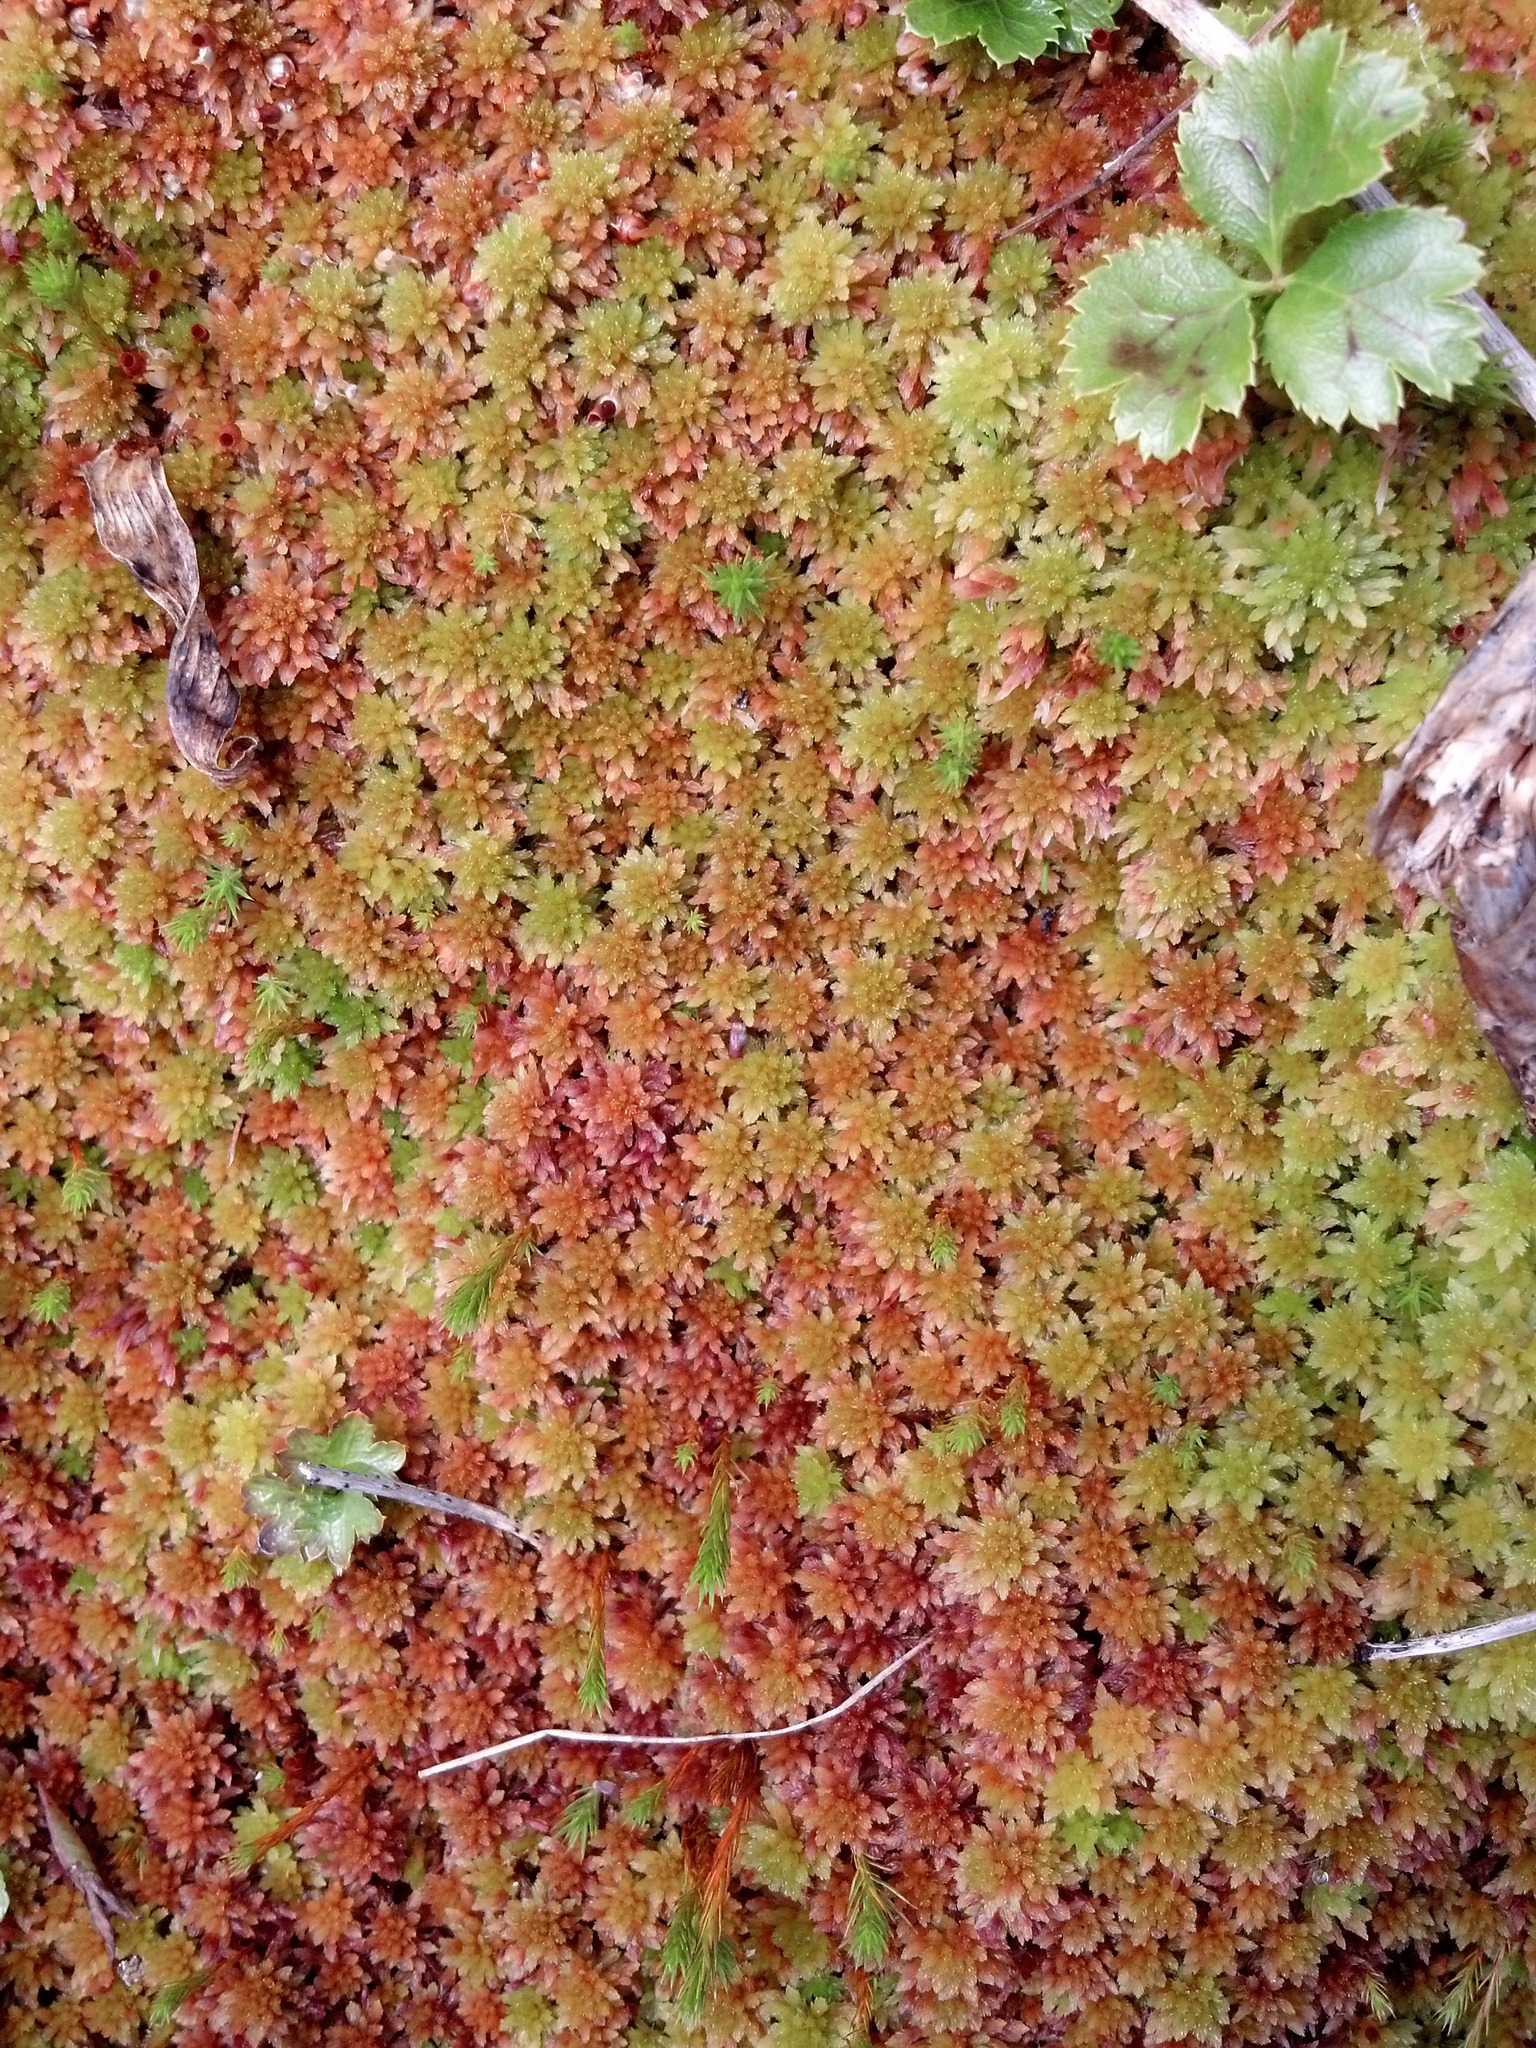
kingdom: Plantae
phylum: Tracheophyta
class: Magnoliopsida
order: Ranunculales
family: Ranunculaceae
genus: Coptis
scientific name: Coptis trifolia
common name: Canker-root
